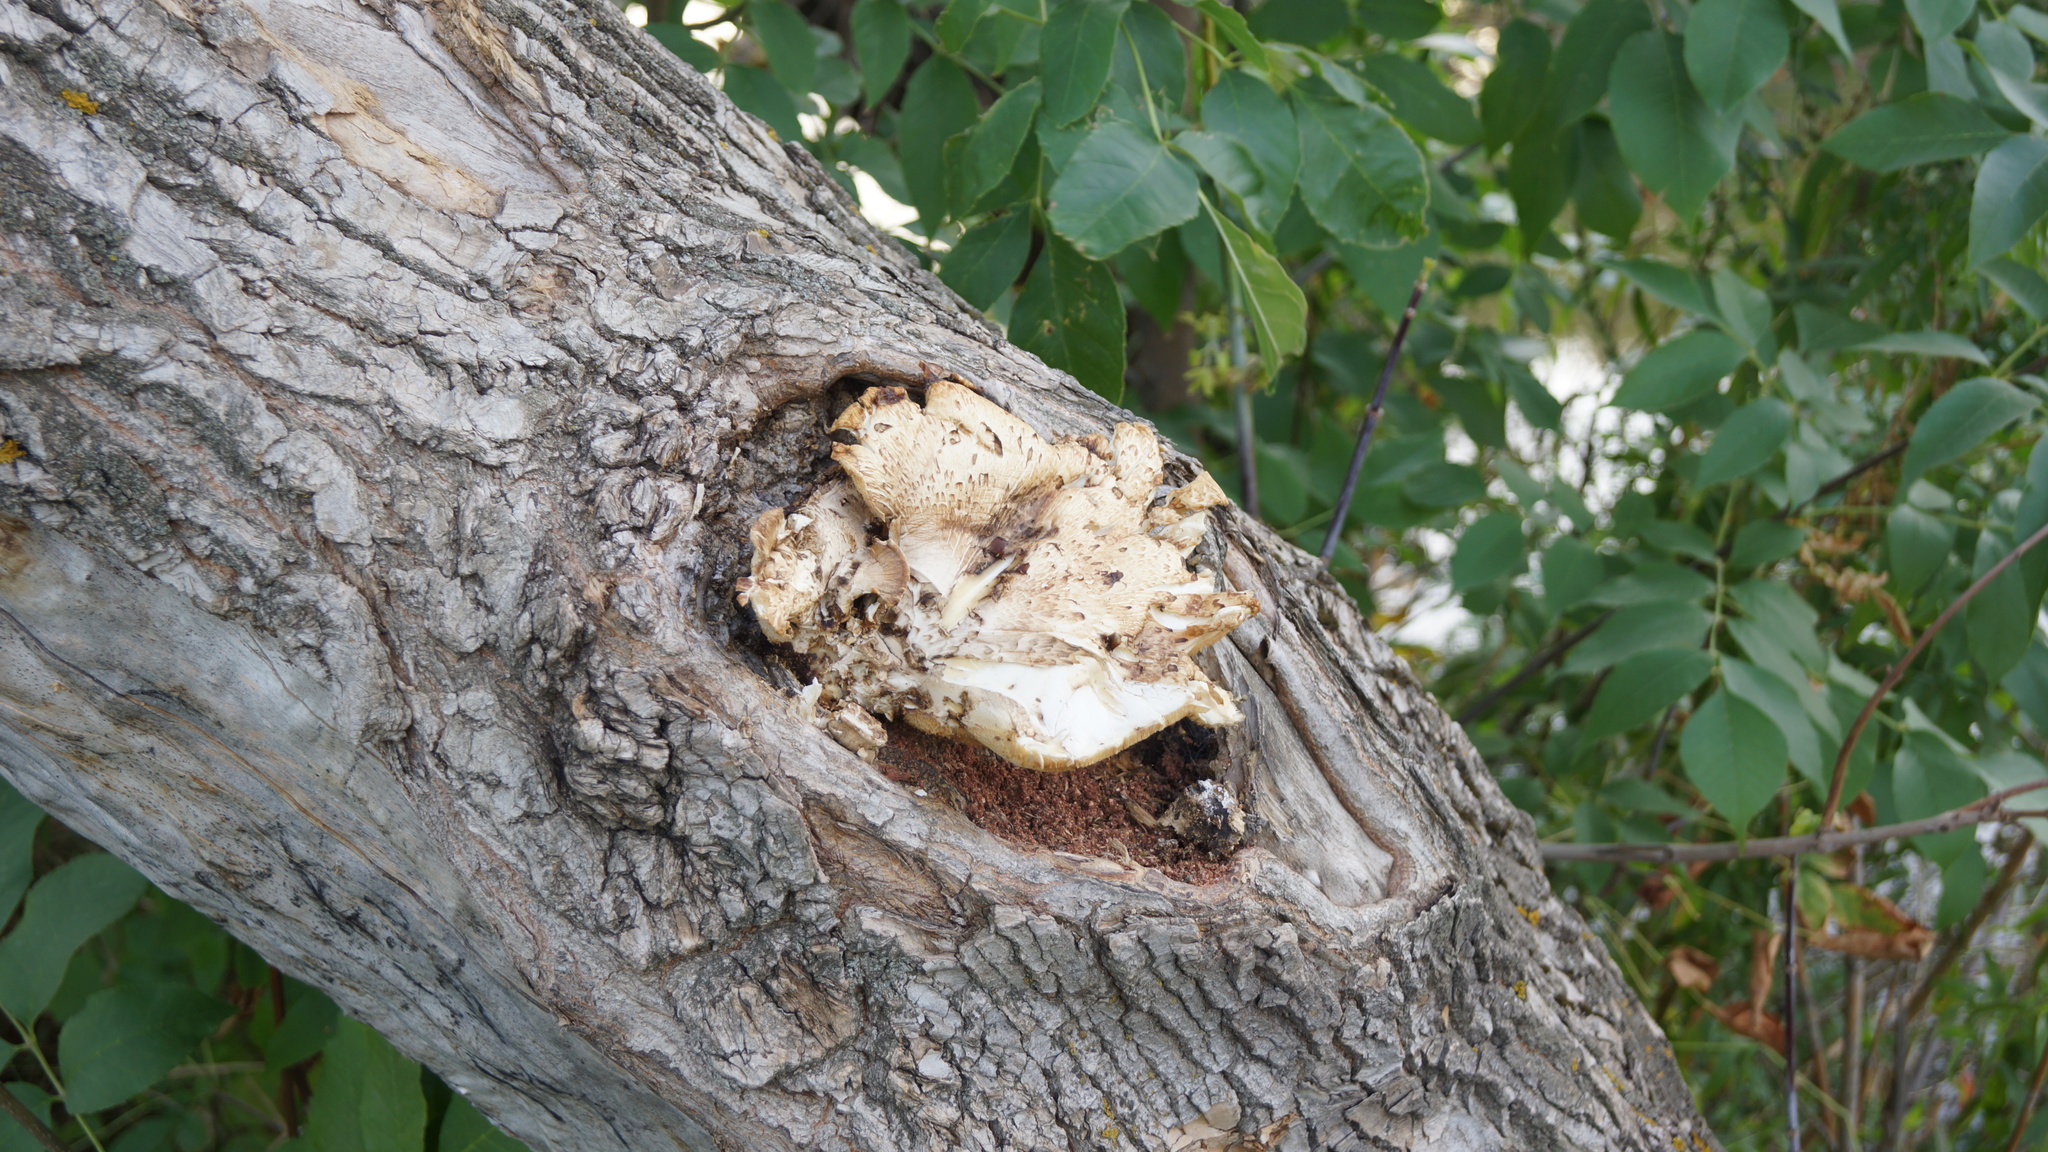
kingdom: Fungi
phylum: Basidiomycota
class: Agaricomycetes
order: Polyporales
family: Polyporaceae
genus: Cerioporus
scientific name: Cerioporus squamosus
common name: Dryad's saddle
